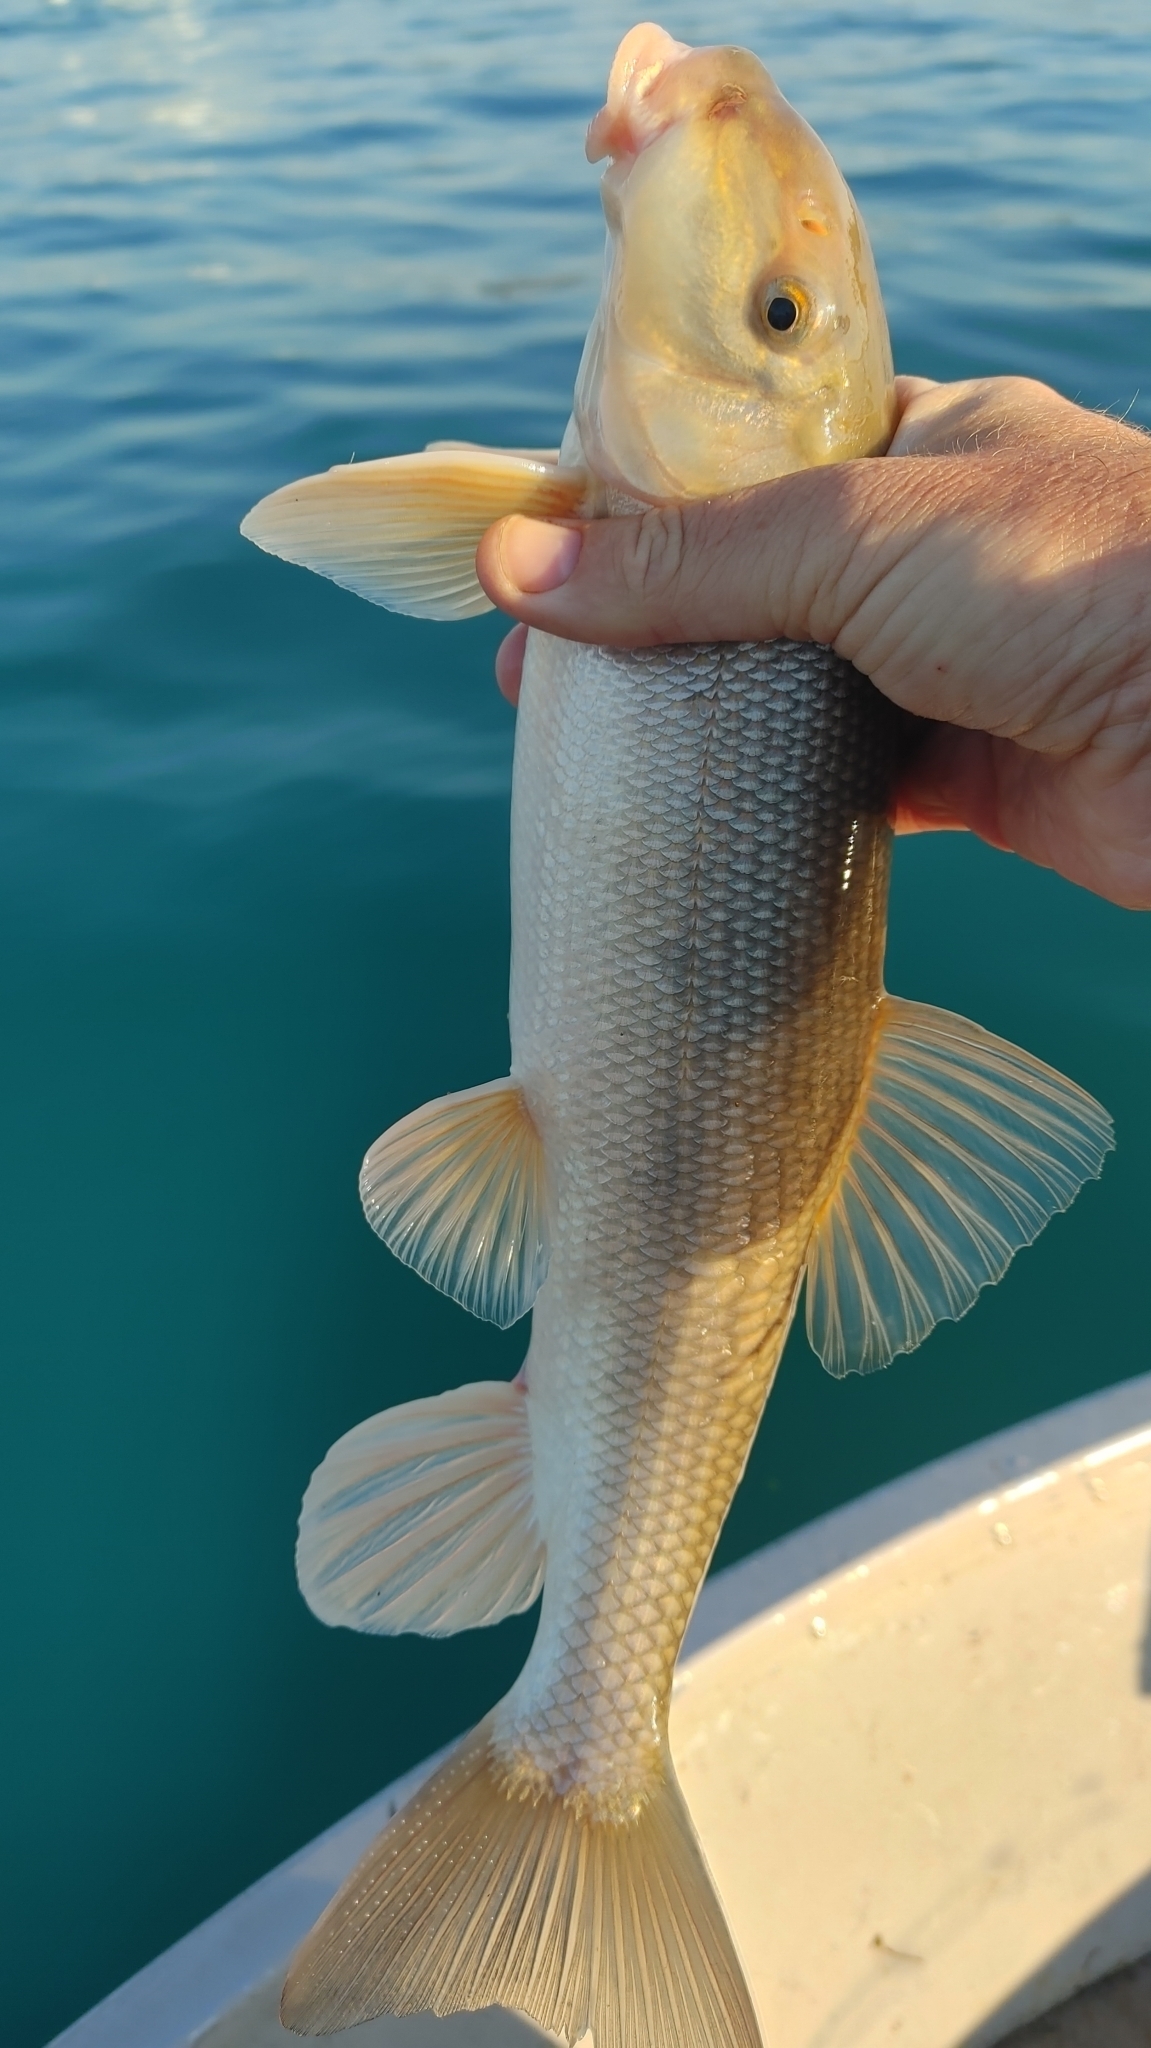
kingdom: Animalia
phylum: Chordata
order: Cypriniformes
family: Catostomidae
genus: Catostomus
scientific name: Catostomus commersonii
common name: White sucker
